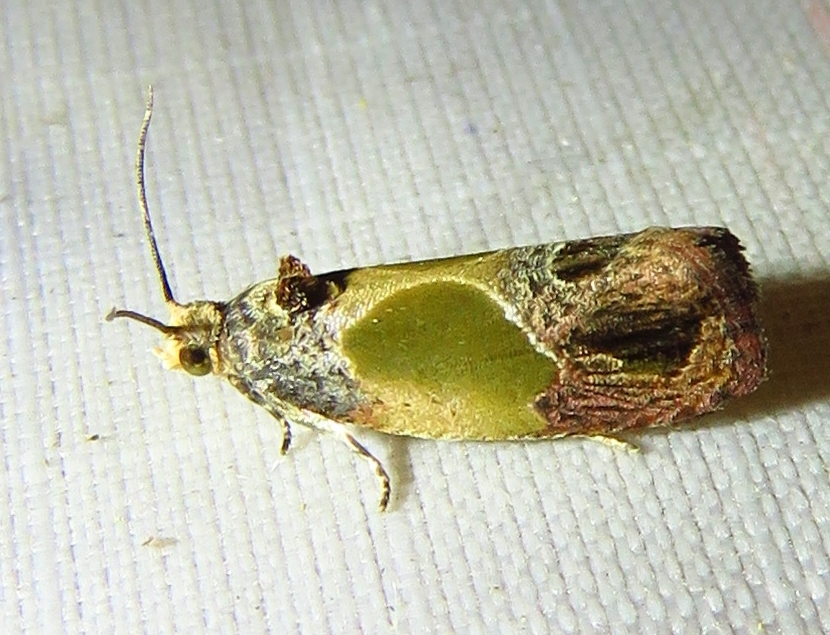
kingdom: Animalia
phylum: Arthropoda
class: Insecta
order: Lepidoptera
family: Tortricidae
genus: Eumarozia
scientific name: Eumarozia malachitana
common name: Sculptured moth
